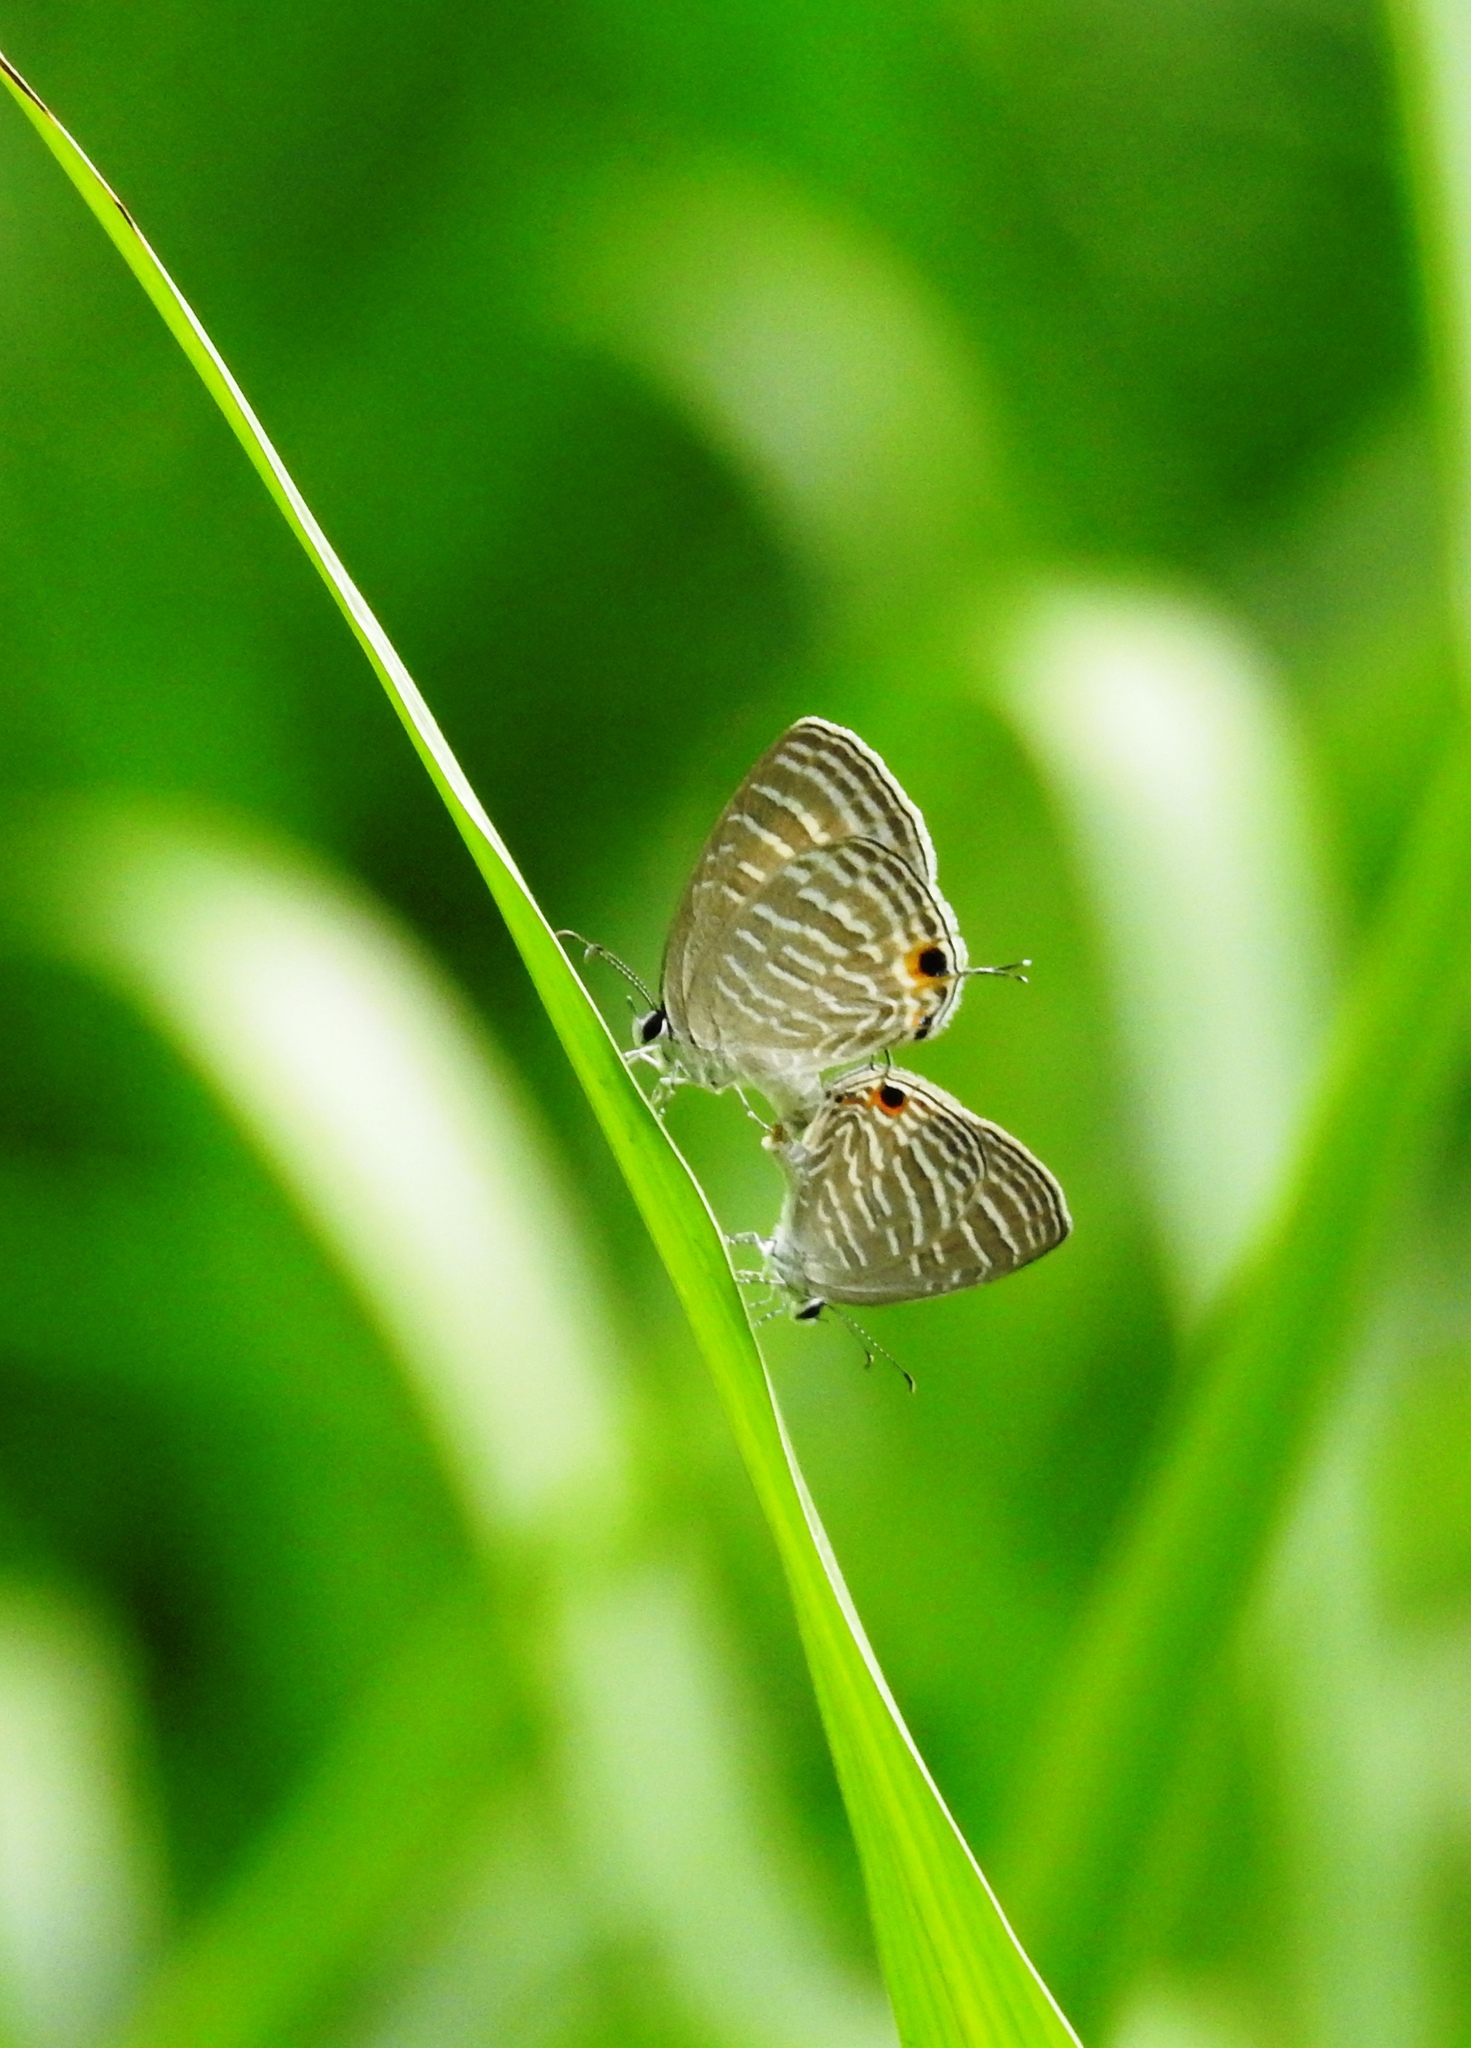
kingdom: Animalia
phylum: Arthropoda
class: Insecta
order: Lepidoptera
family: Lycaenidae
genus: Jamides
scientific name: Jamides celeno
